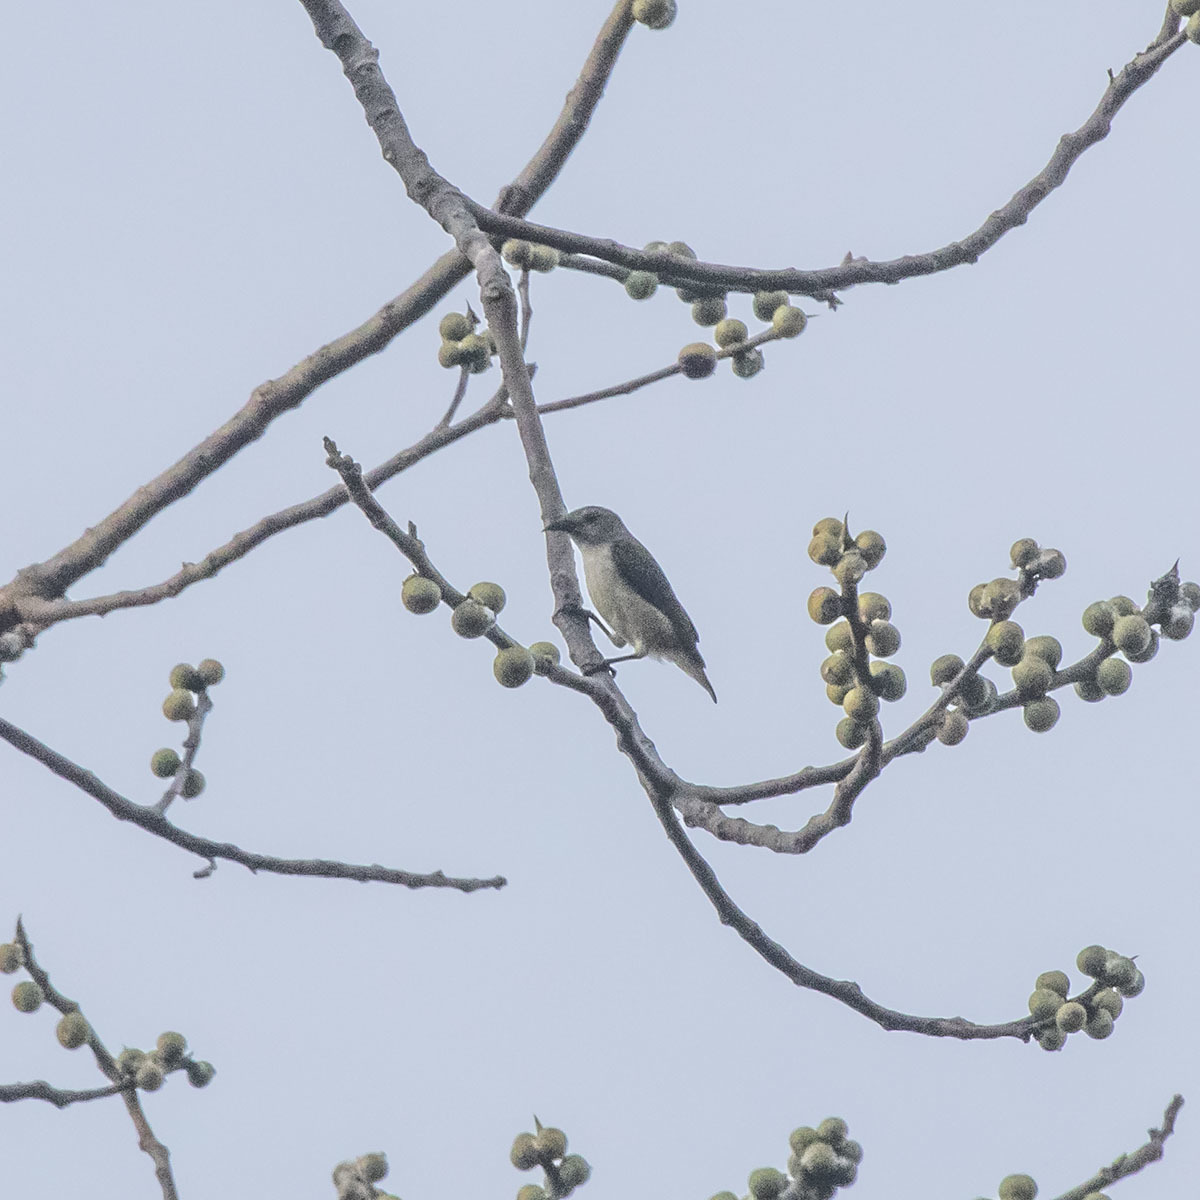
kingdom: Animalia
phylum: Chordata
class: Aves
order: Passeriformes
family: Dicaeidae
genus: Dicaeum
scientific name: Dicaeum virescens
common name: Andaman flowerpecker
